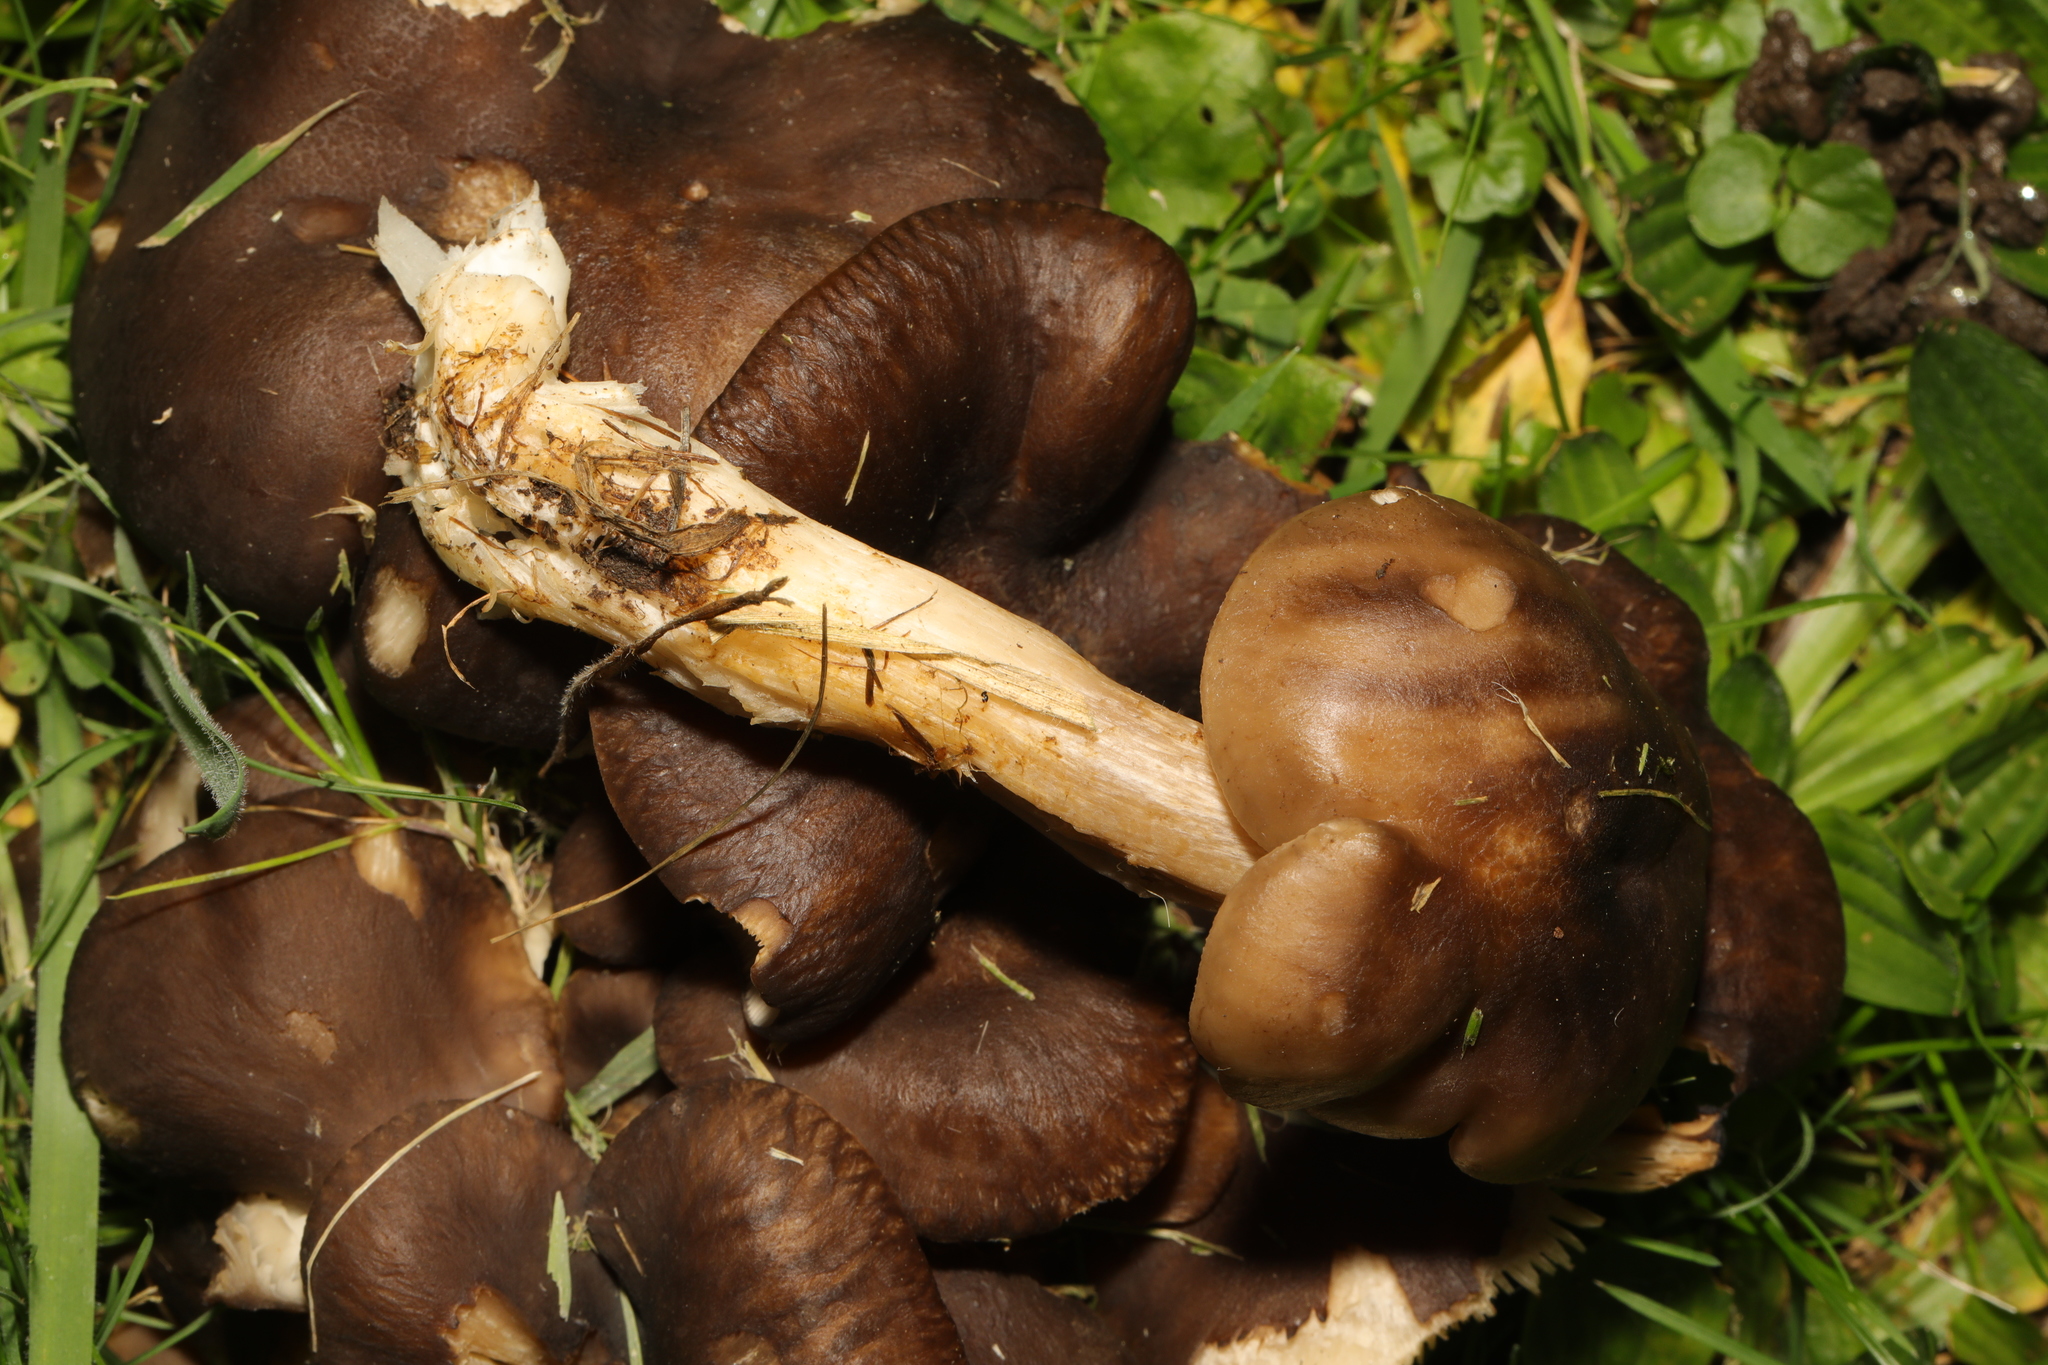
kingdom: Fungi
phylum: Basidiomycota
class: Agaricomycetes
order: Agaricales
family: Lyophyllaceae
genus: Lyophyllum
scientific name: Lyophyllum decastes
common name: Clustered domecap
